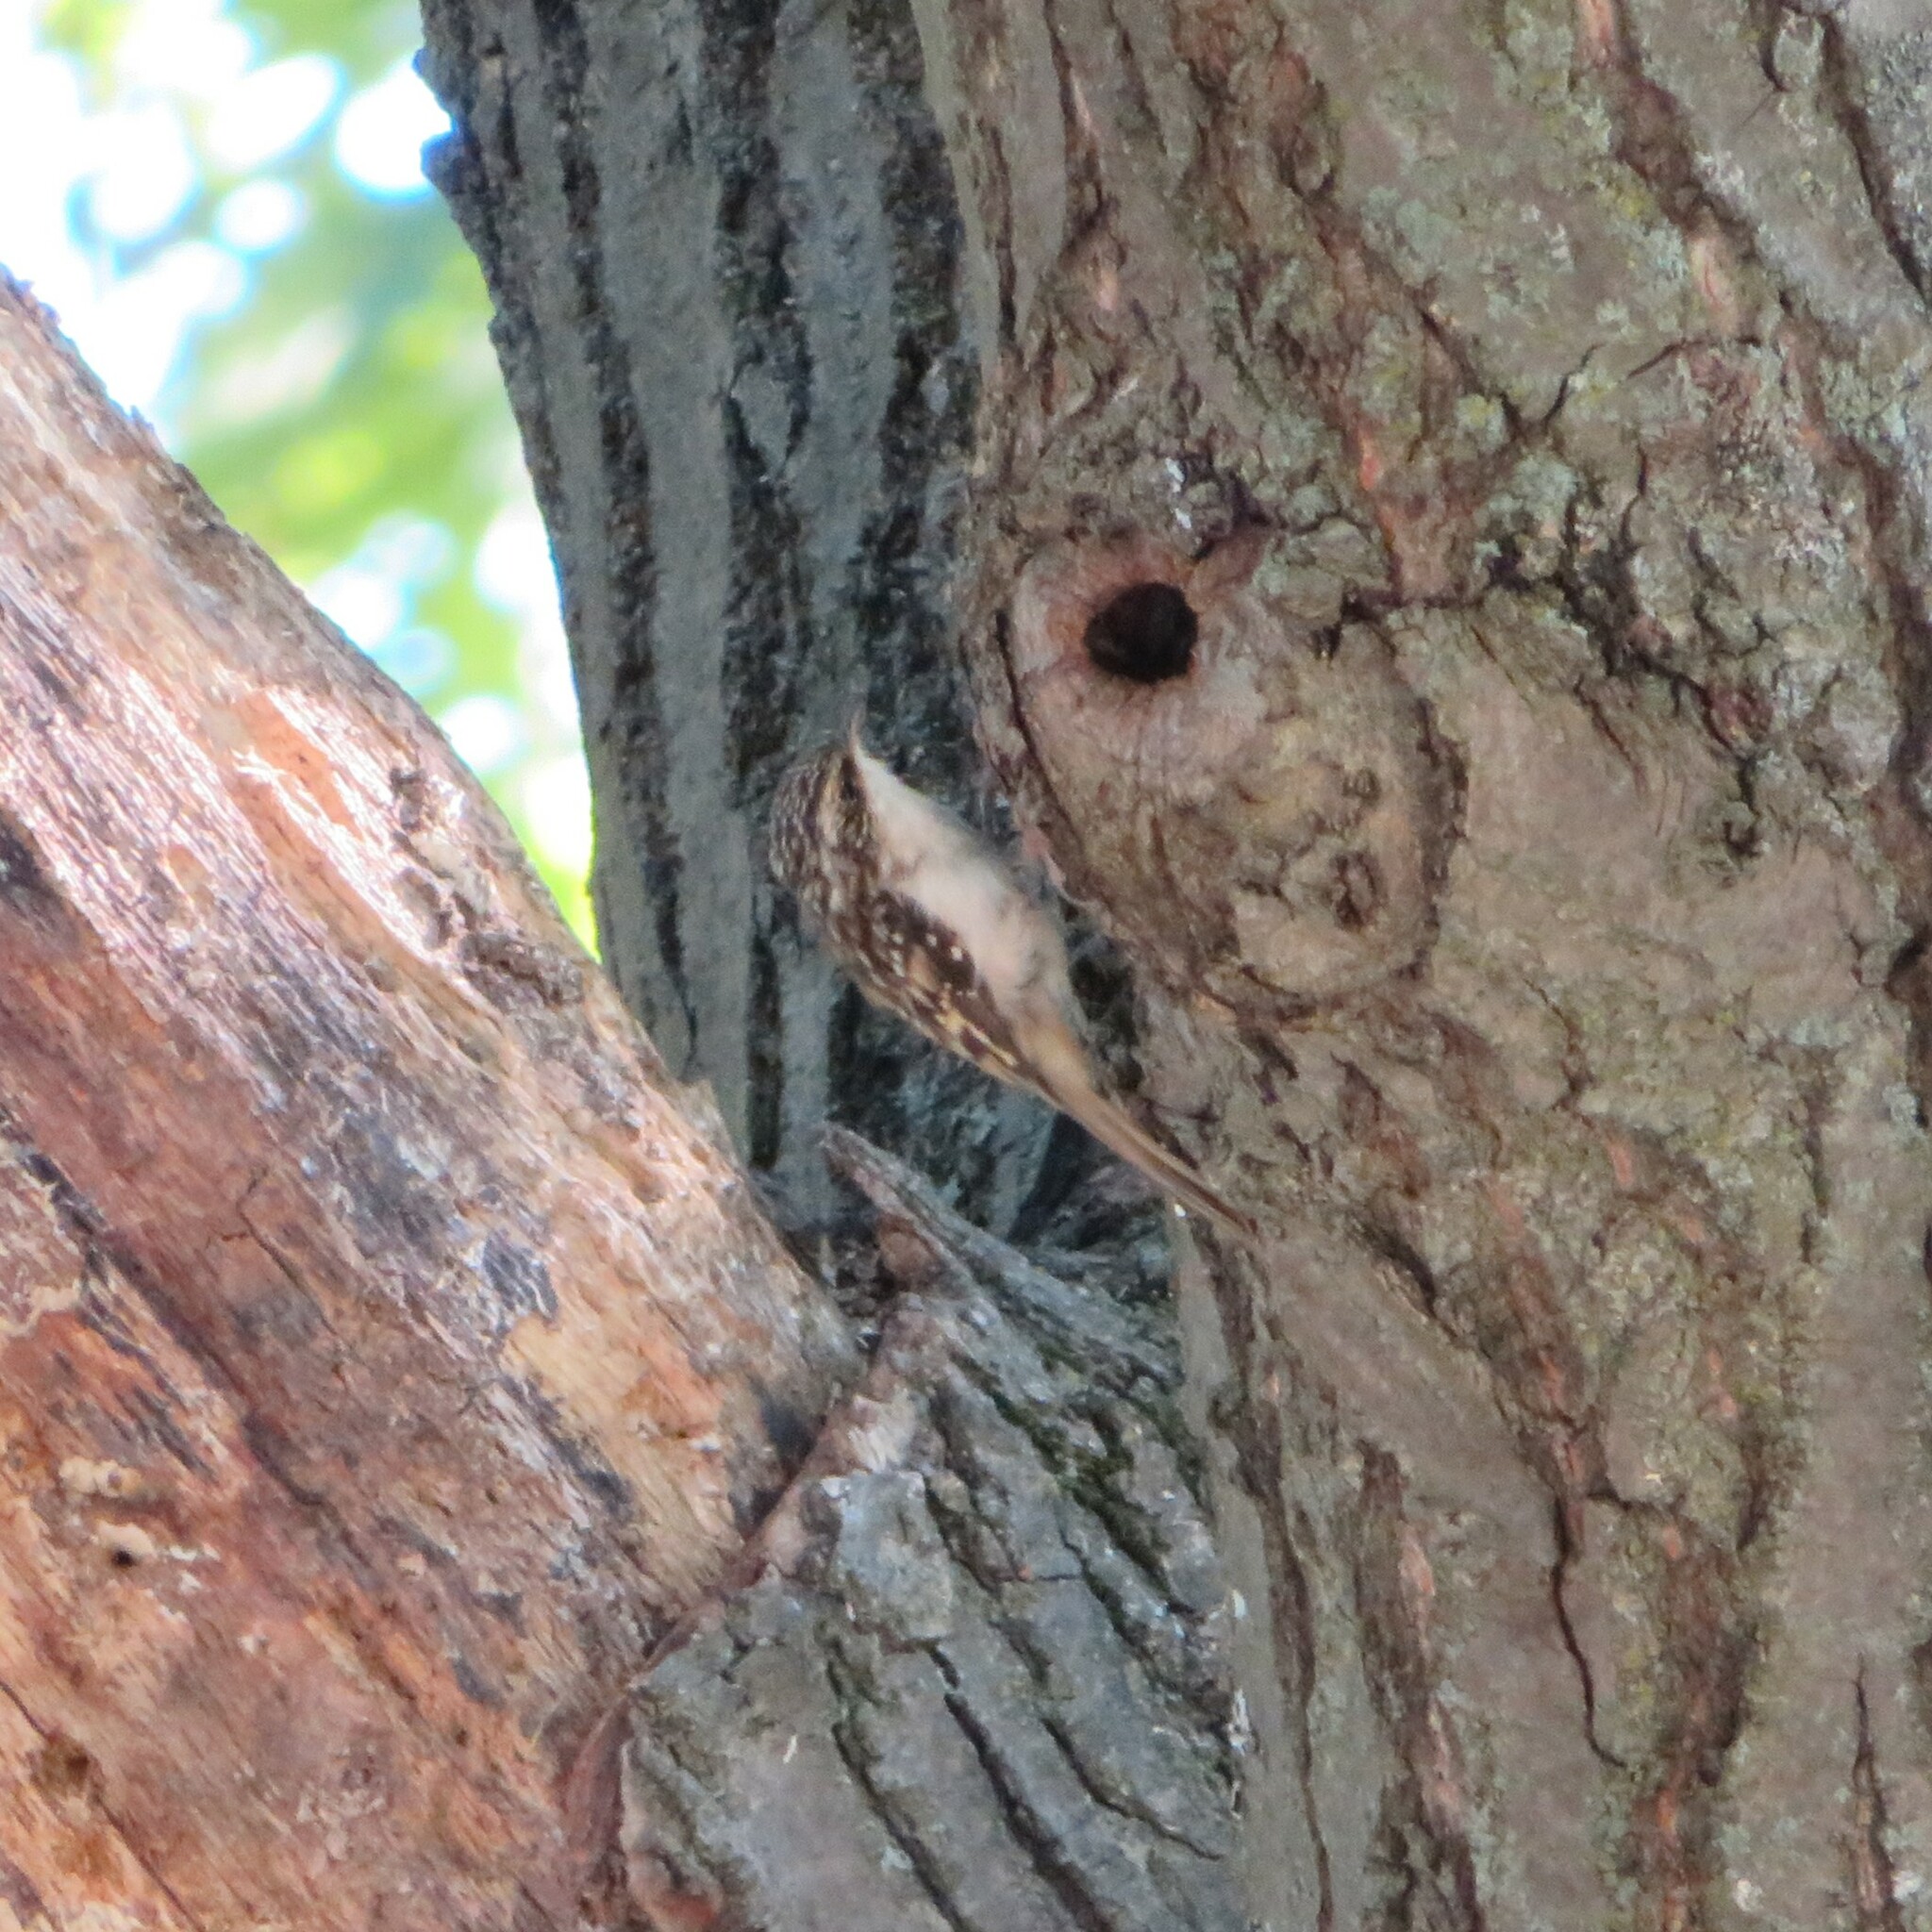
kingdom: Animalia
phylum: Chordata
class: Aves
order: Passeriformes
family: Certhiidae
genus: Certhia
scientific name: Certhia americana
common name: Brown creeper
